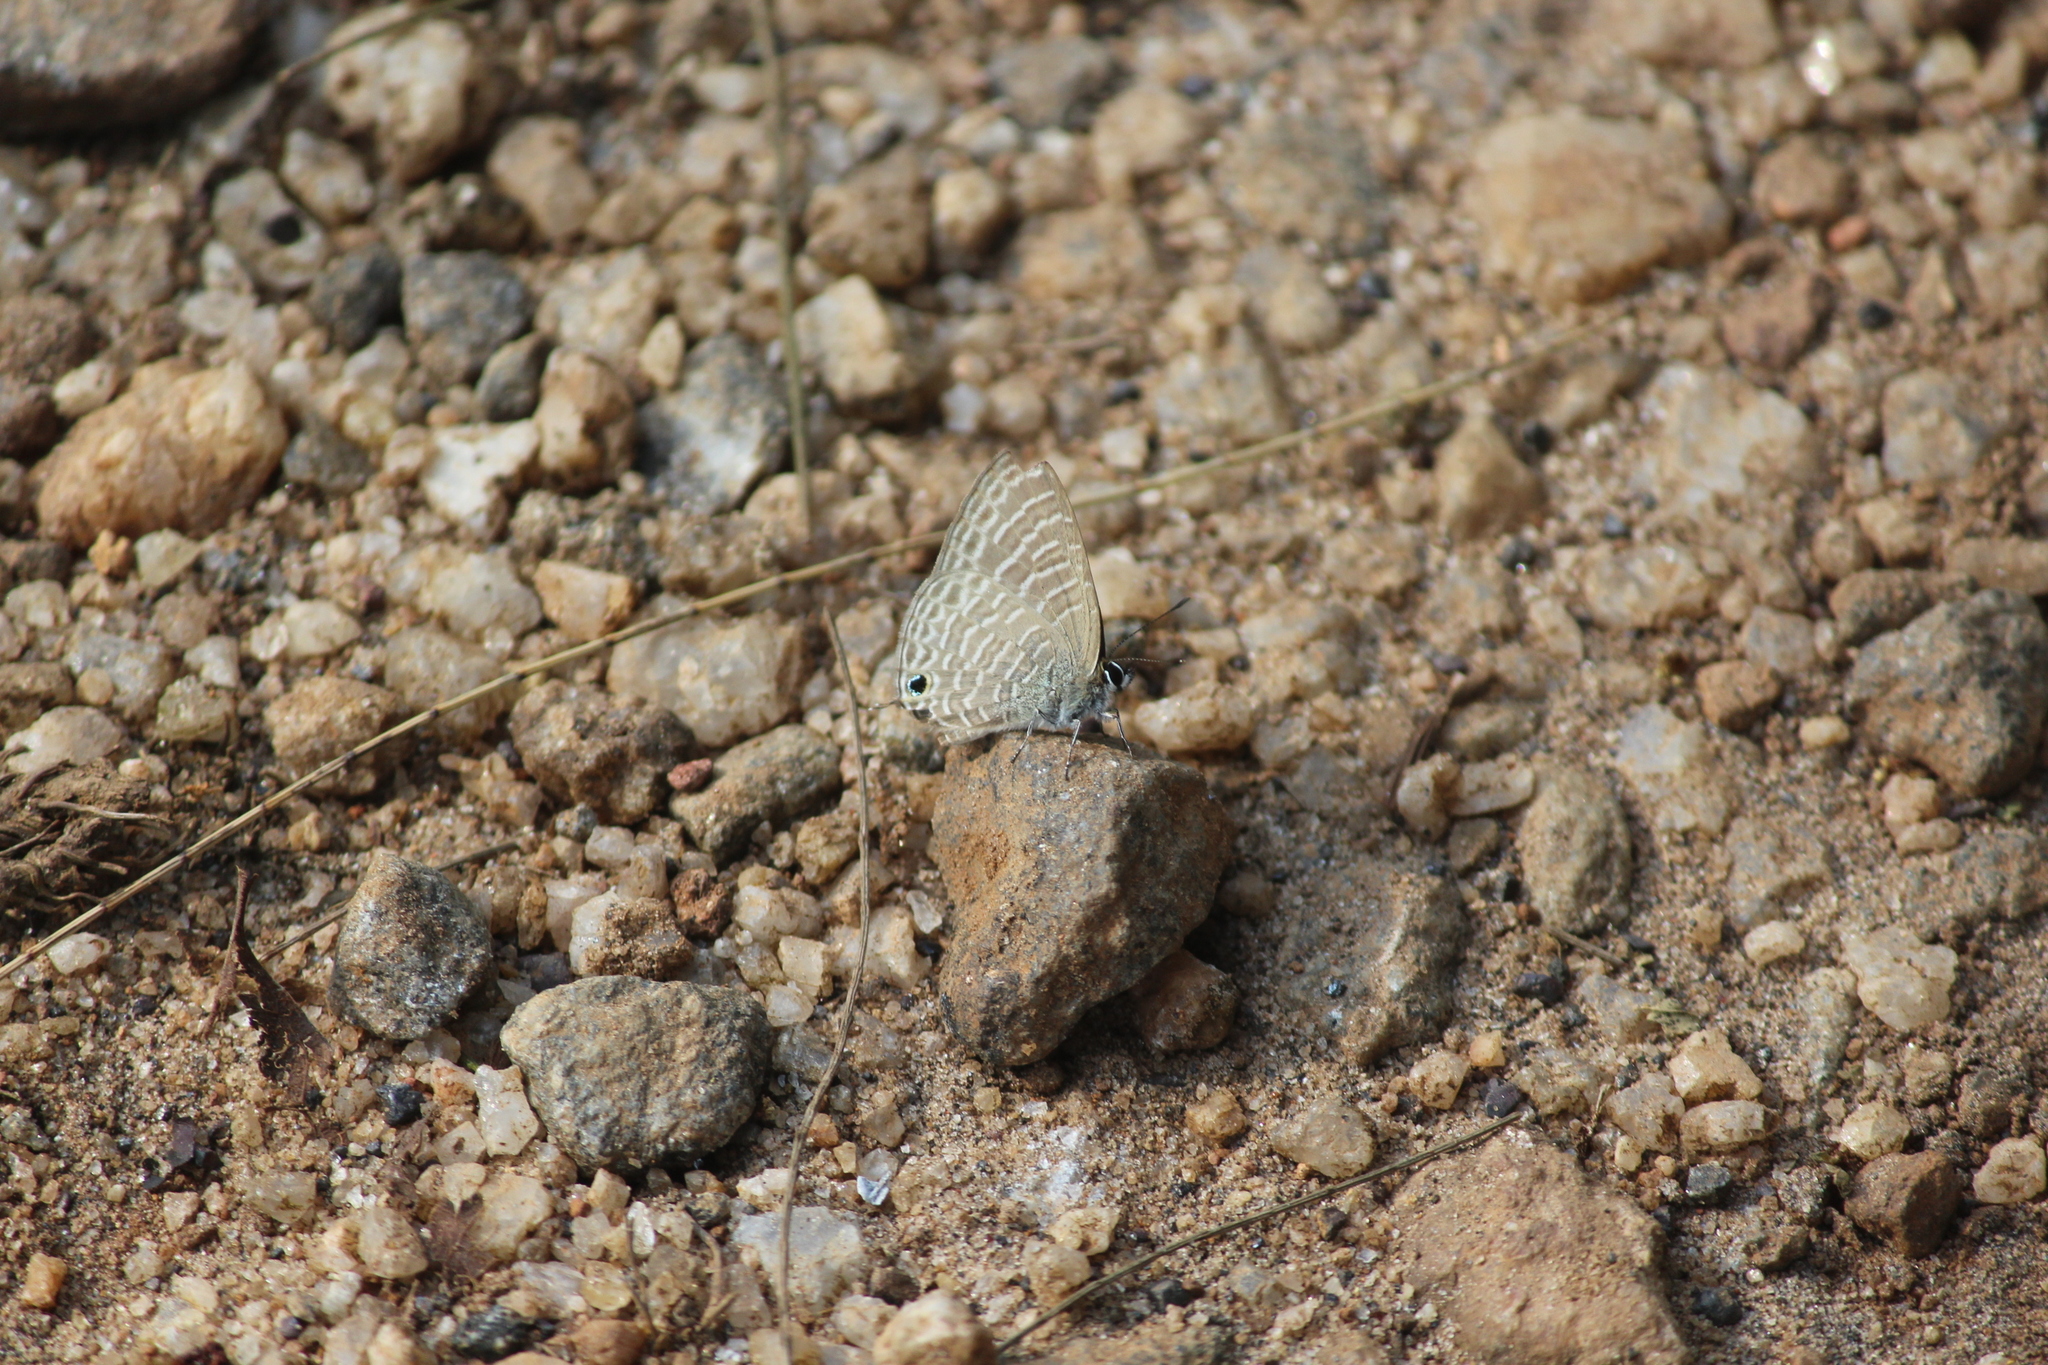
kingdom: Animalia
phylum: Arthropoda
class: Insecta
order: Lepidoptera
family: Lycaenidae
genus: Nacaduba
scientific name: Nacaduba kurava
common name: Transparent 6-line blue
